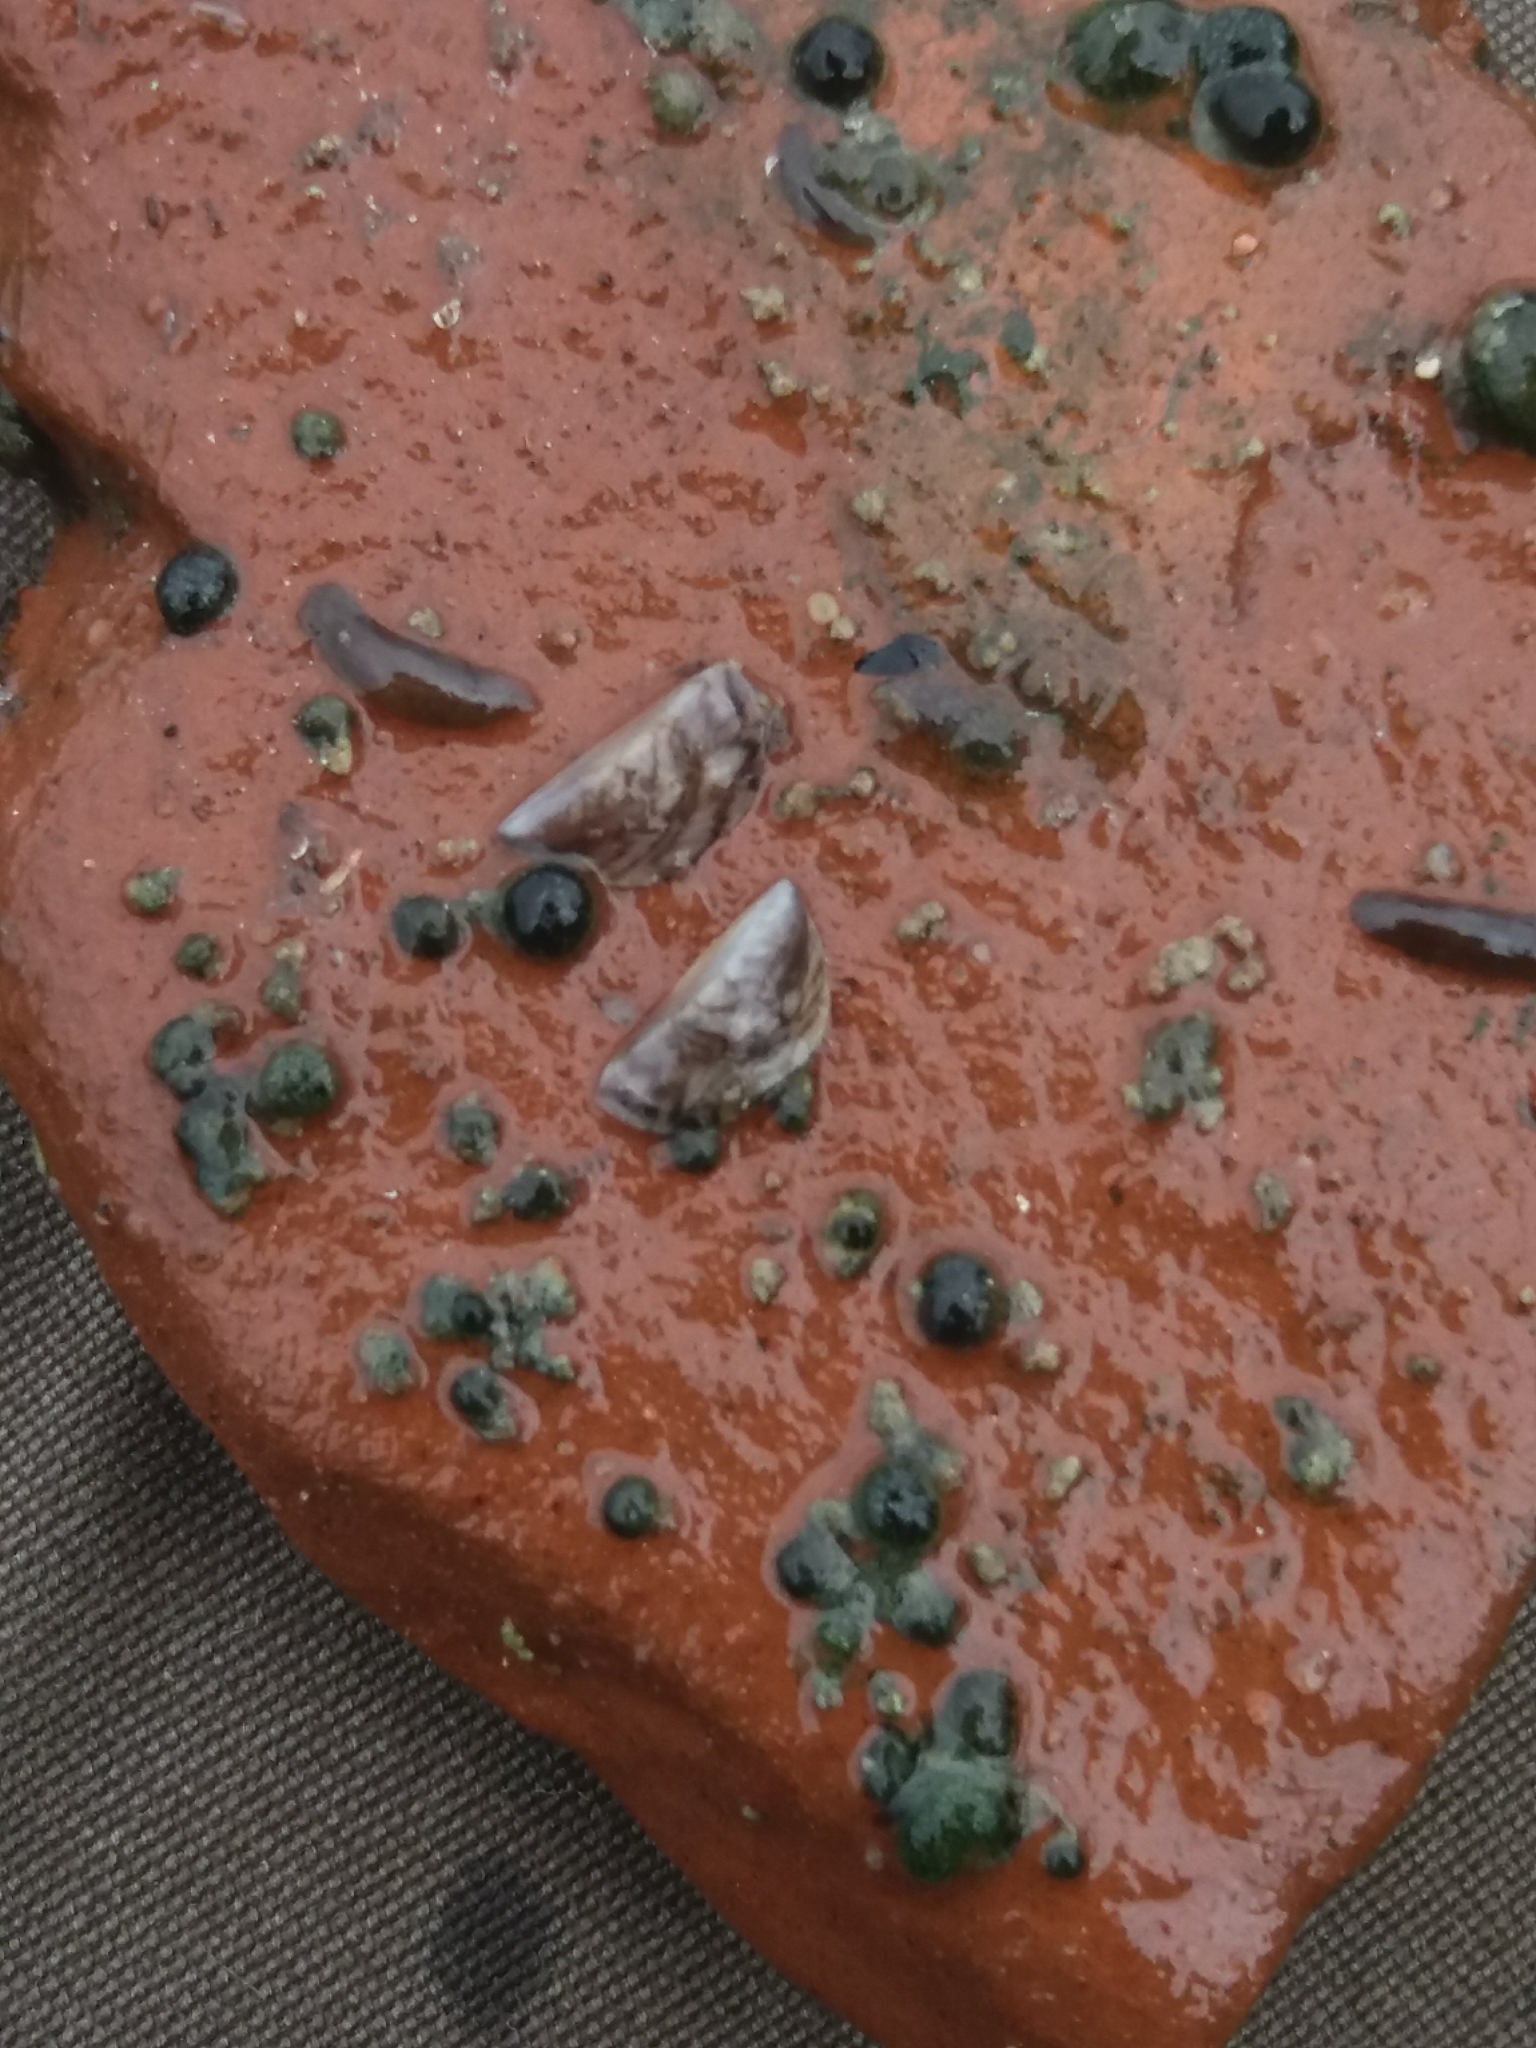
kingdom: Animalia
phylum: Mollusca
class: Bivalvia
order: Myida
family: Dreissenidae
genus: Dreissena
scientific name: Dreissena polymorpha
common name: Zebra mussel
